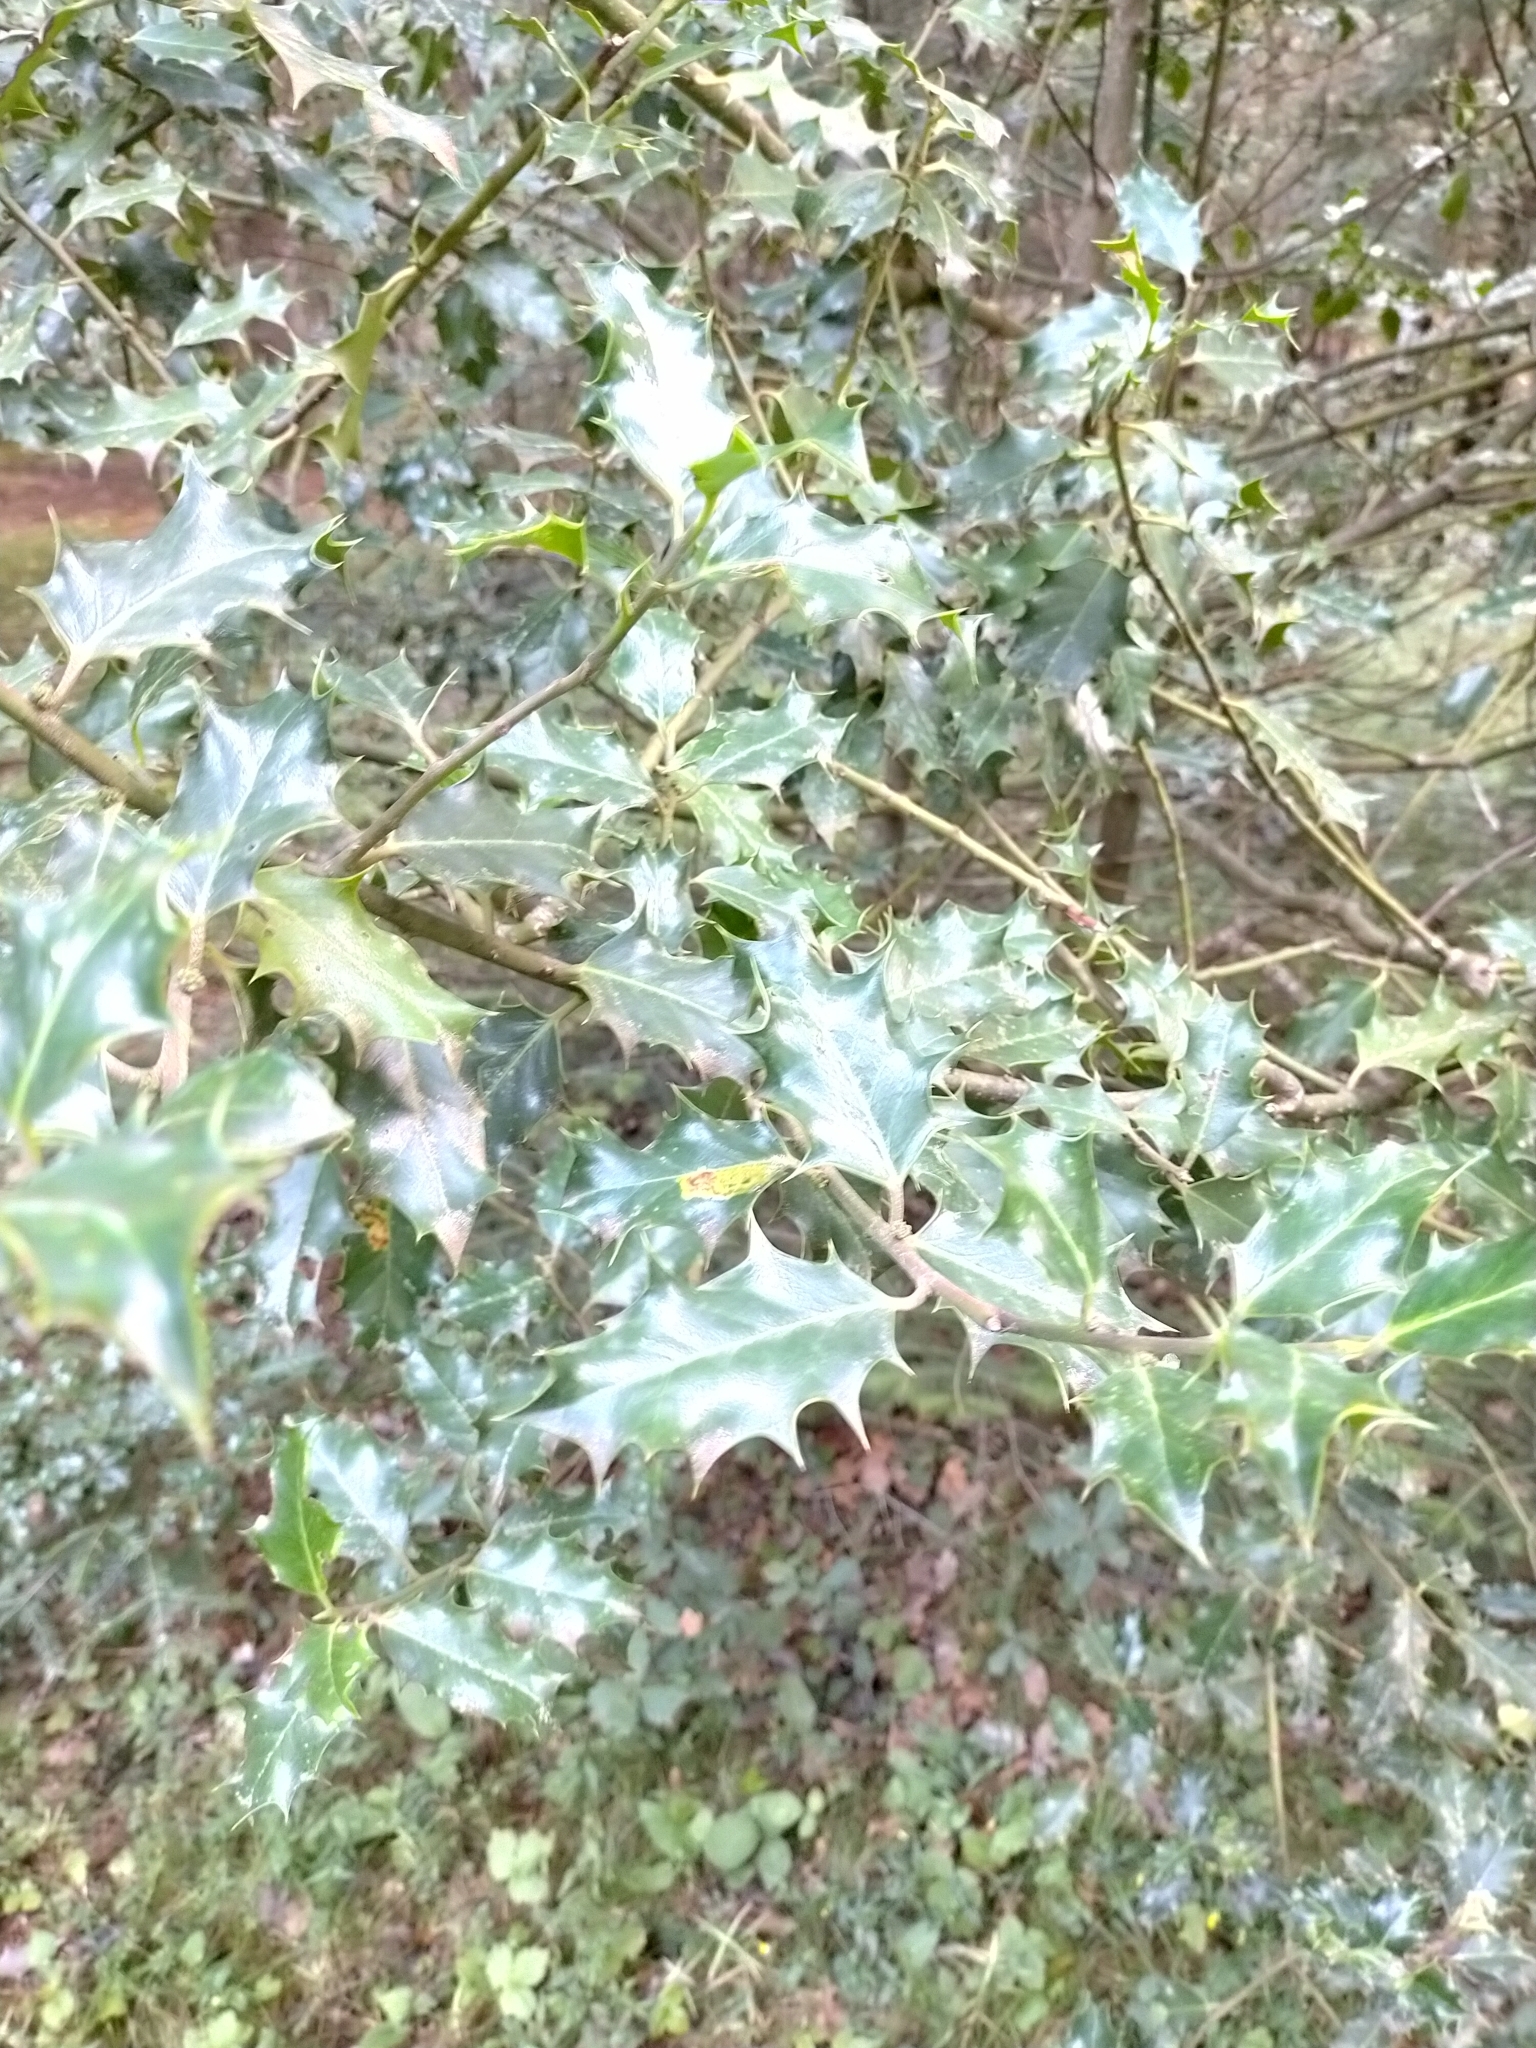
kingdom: Plantae
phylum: Tracheophyta
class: Magnoliopsida
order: Aquifoliales
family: Aquifoliaceae
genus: Ilex
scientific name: Ilex aquifolium
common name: English holly
